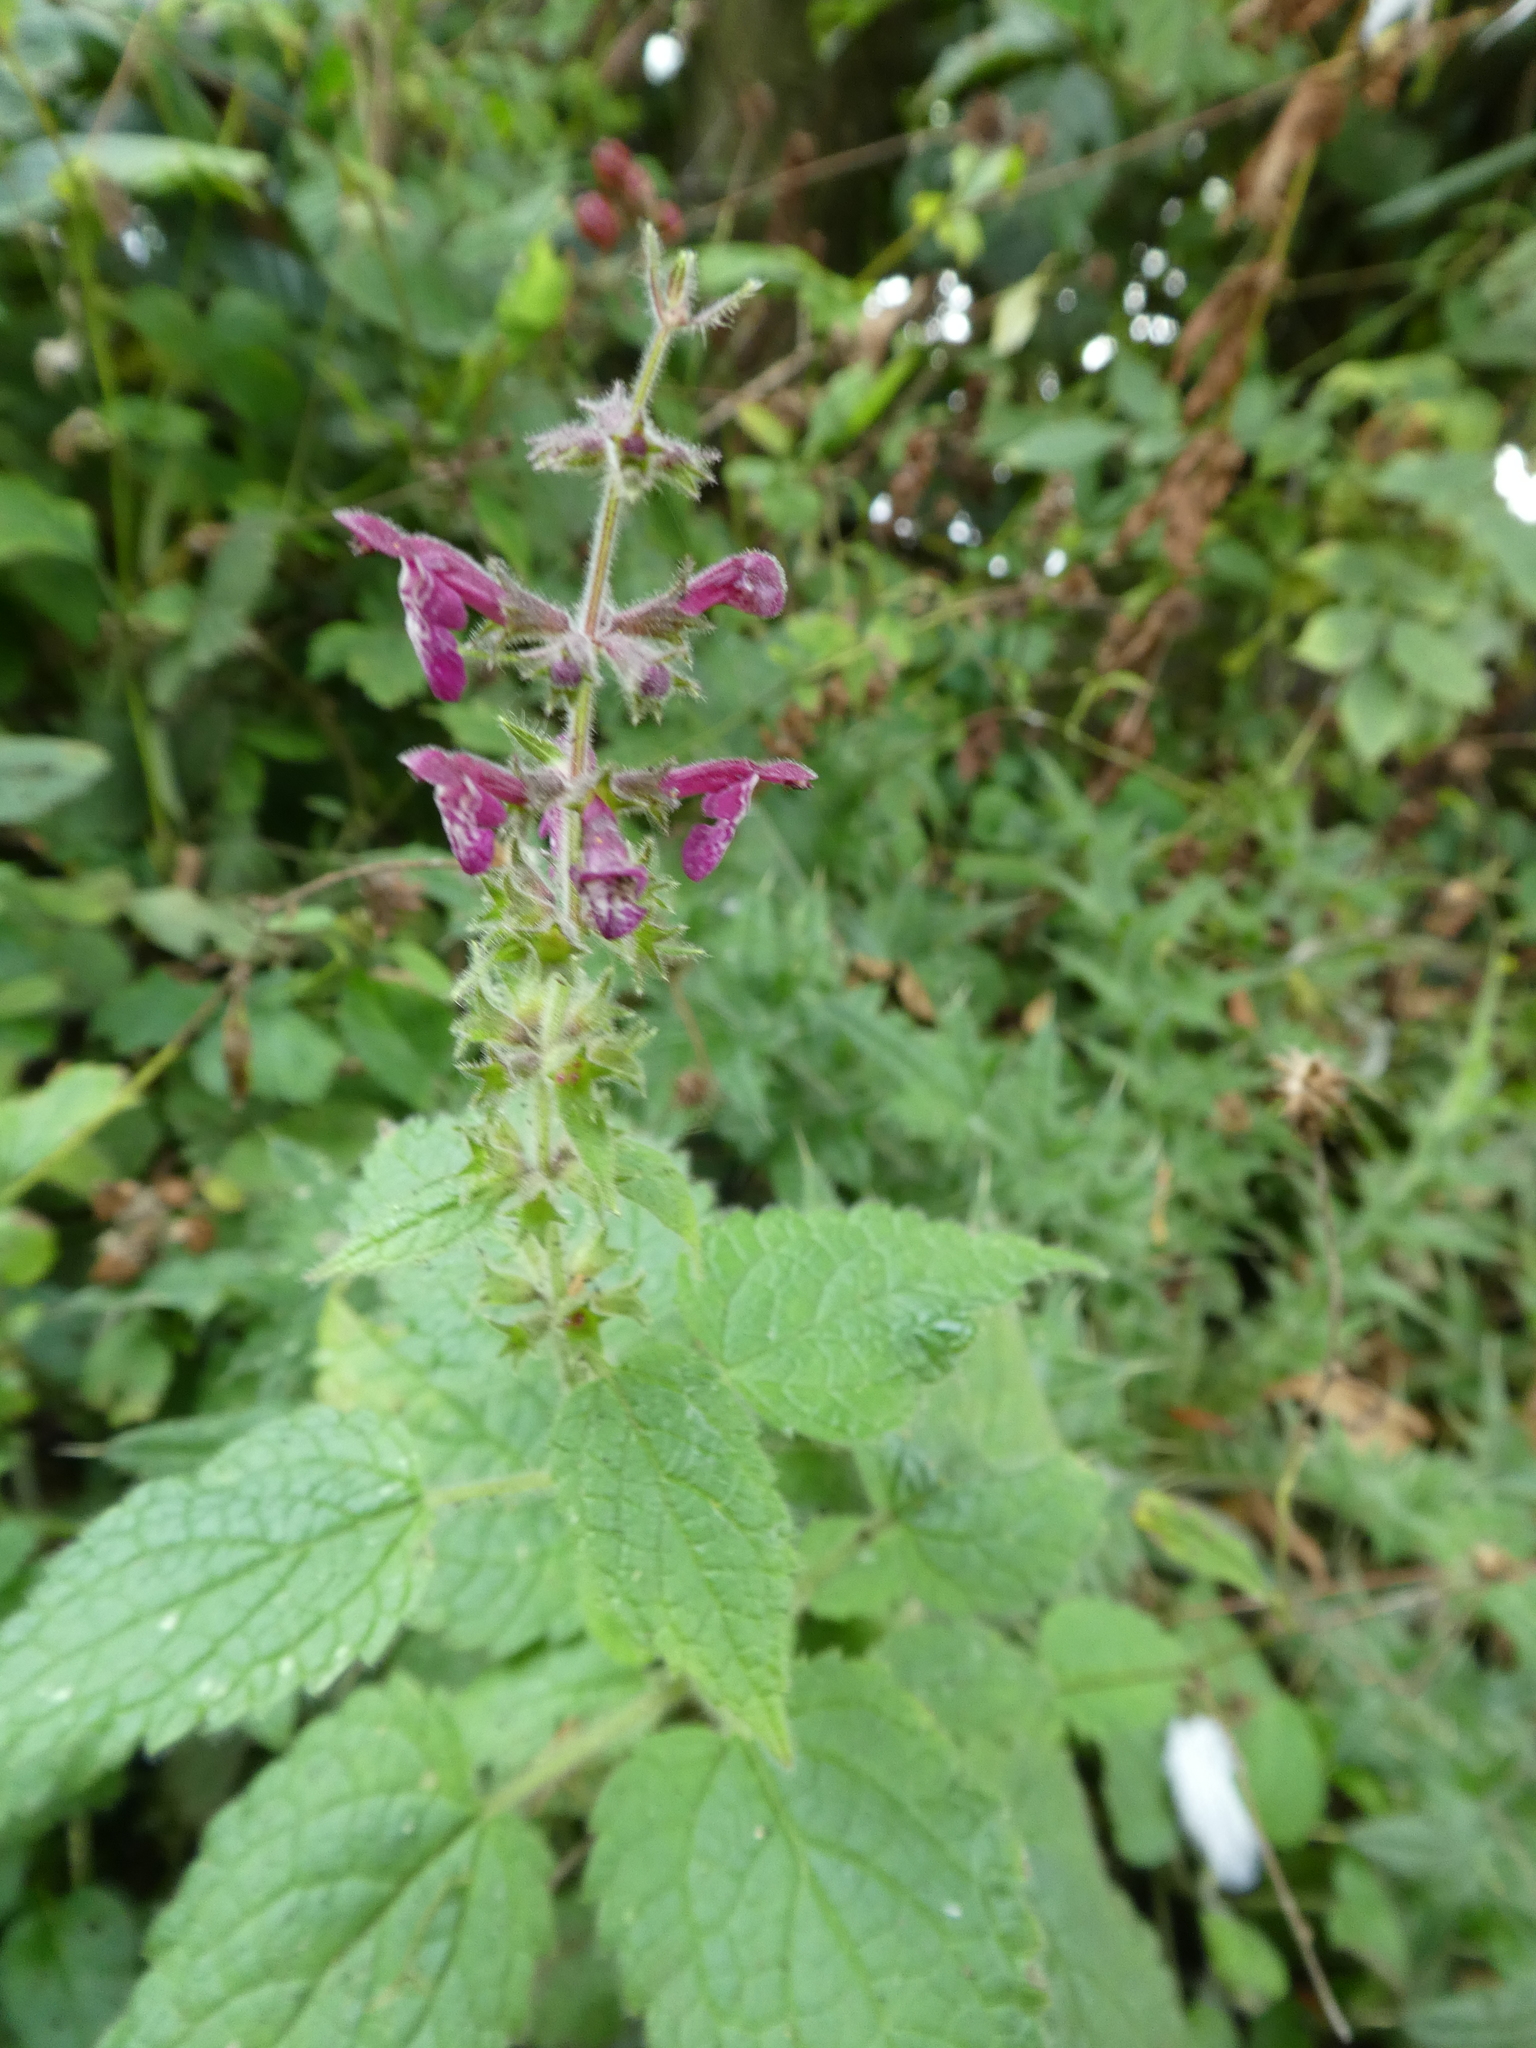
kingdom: Plantae
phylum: Tracheophyta
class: Magnoliopsida
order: Lamiales
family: Lamiaceae
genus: Stachys
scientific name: Stachys sylvatica
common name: Hedge woundwort
